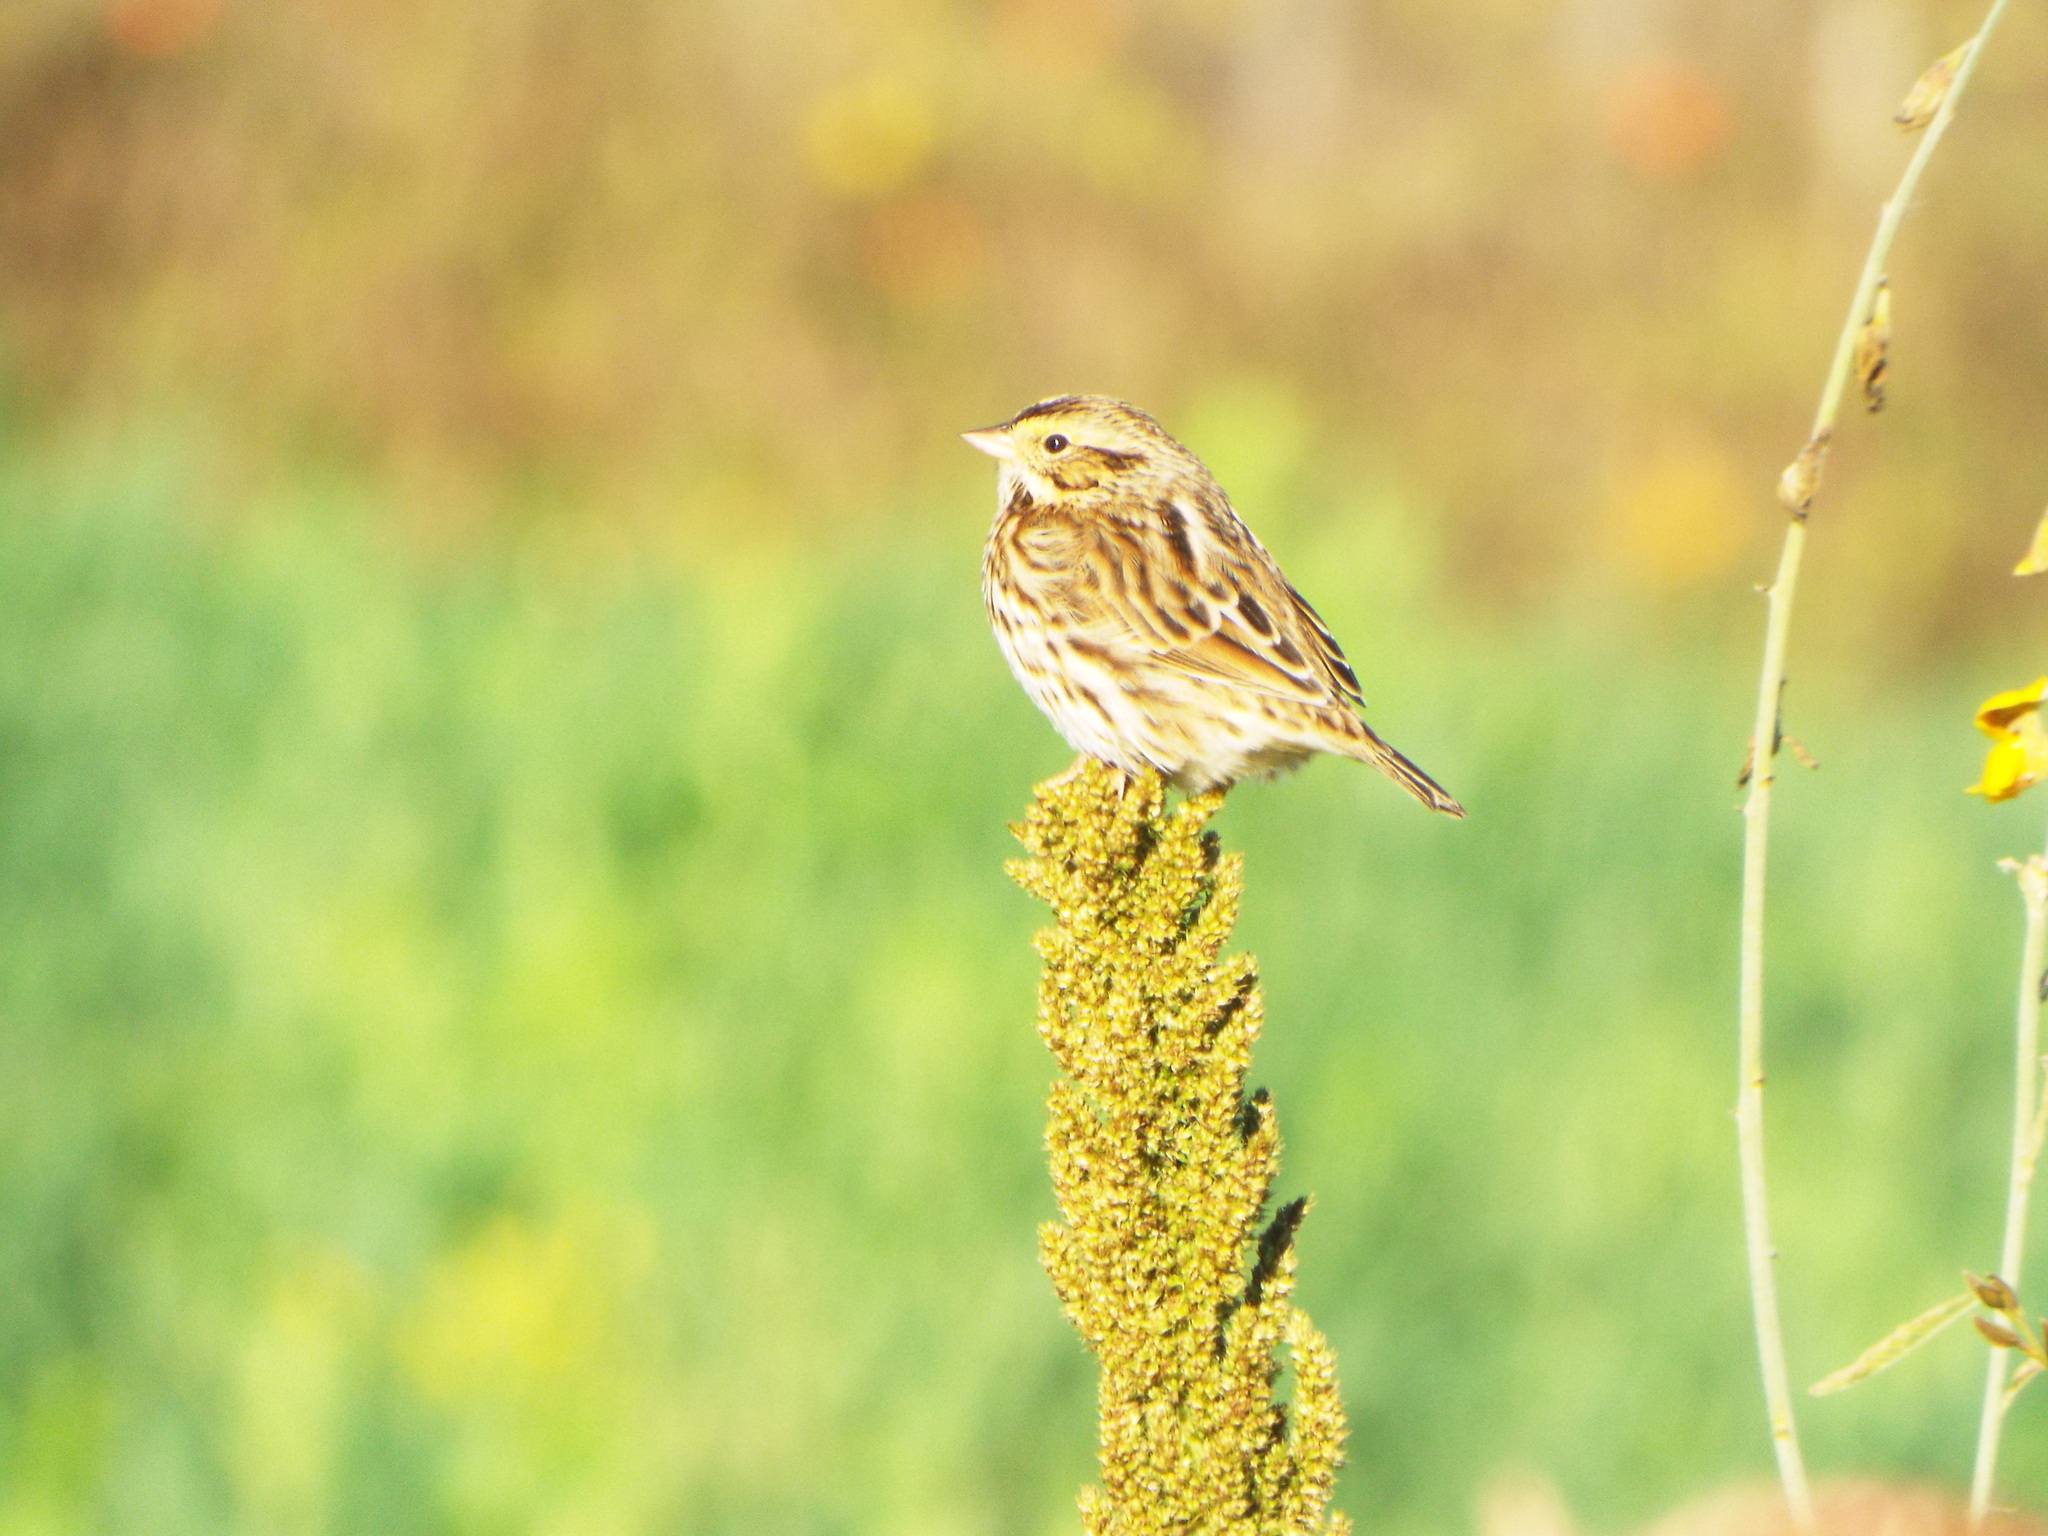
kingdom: Animalia
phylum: Chordata
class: Aves
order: Passeriformes
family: Passerellidae
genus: Passerculus
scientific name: Passerculus sandwichensis
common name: Savannah sparrow
